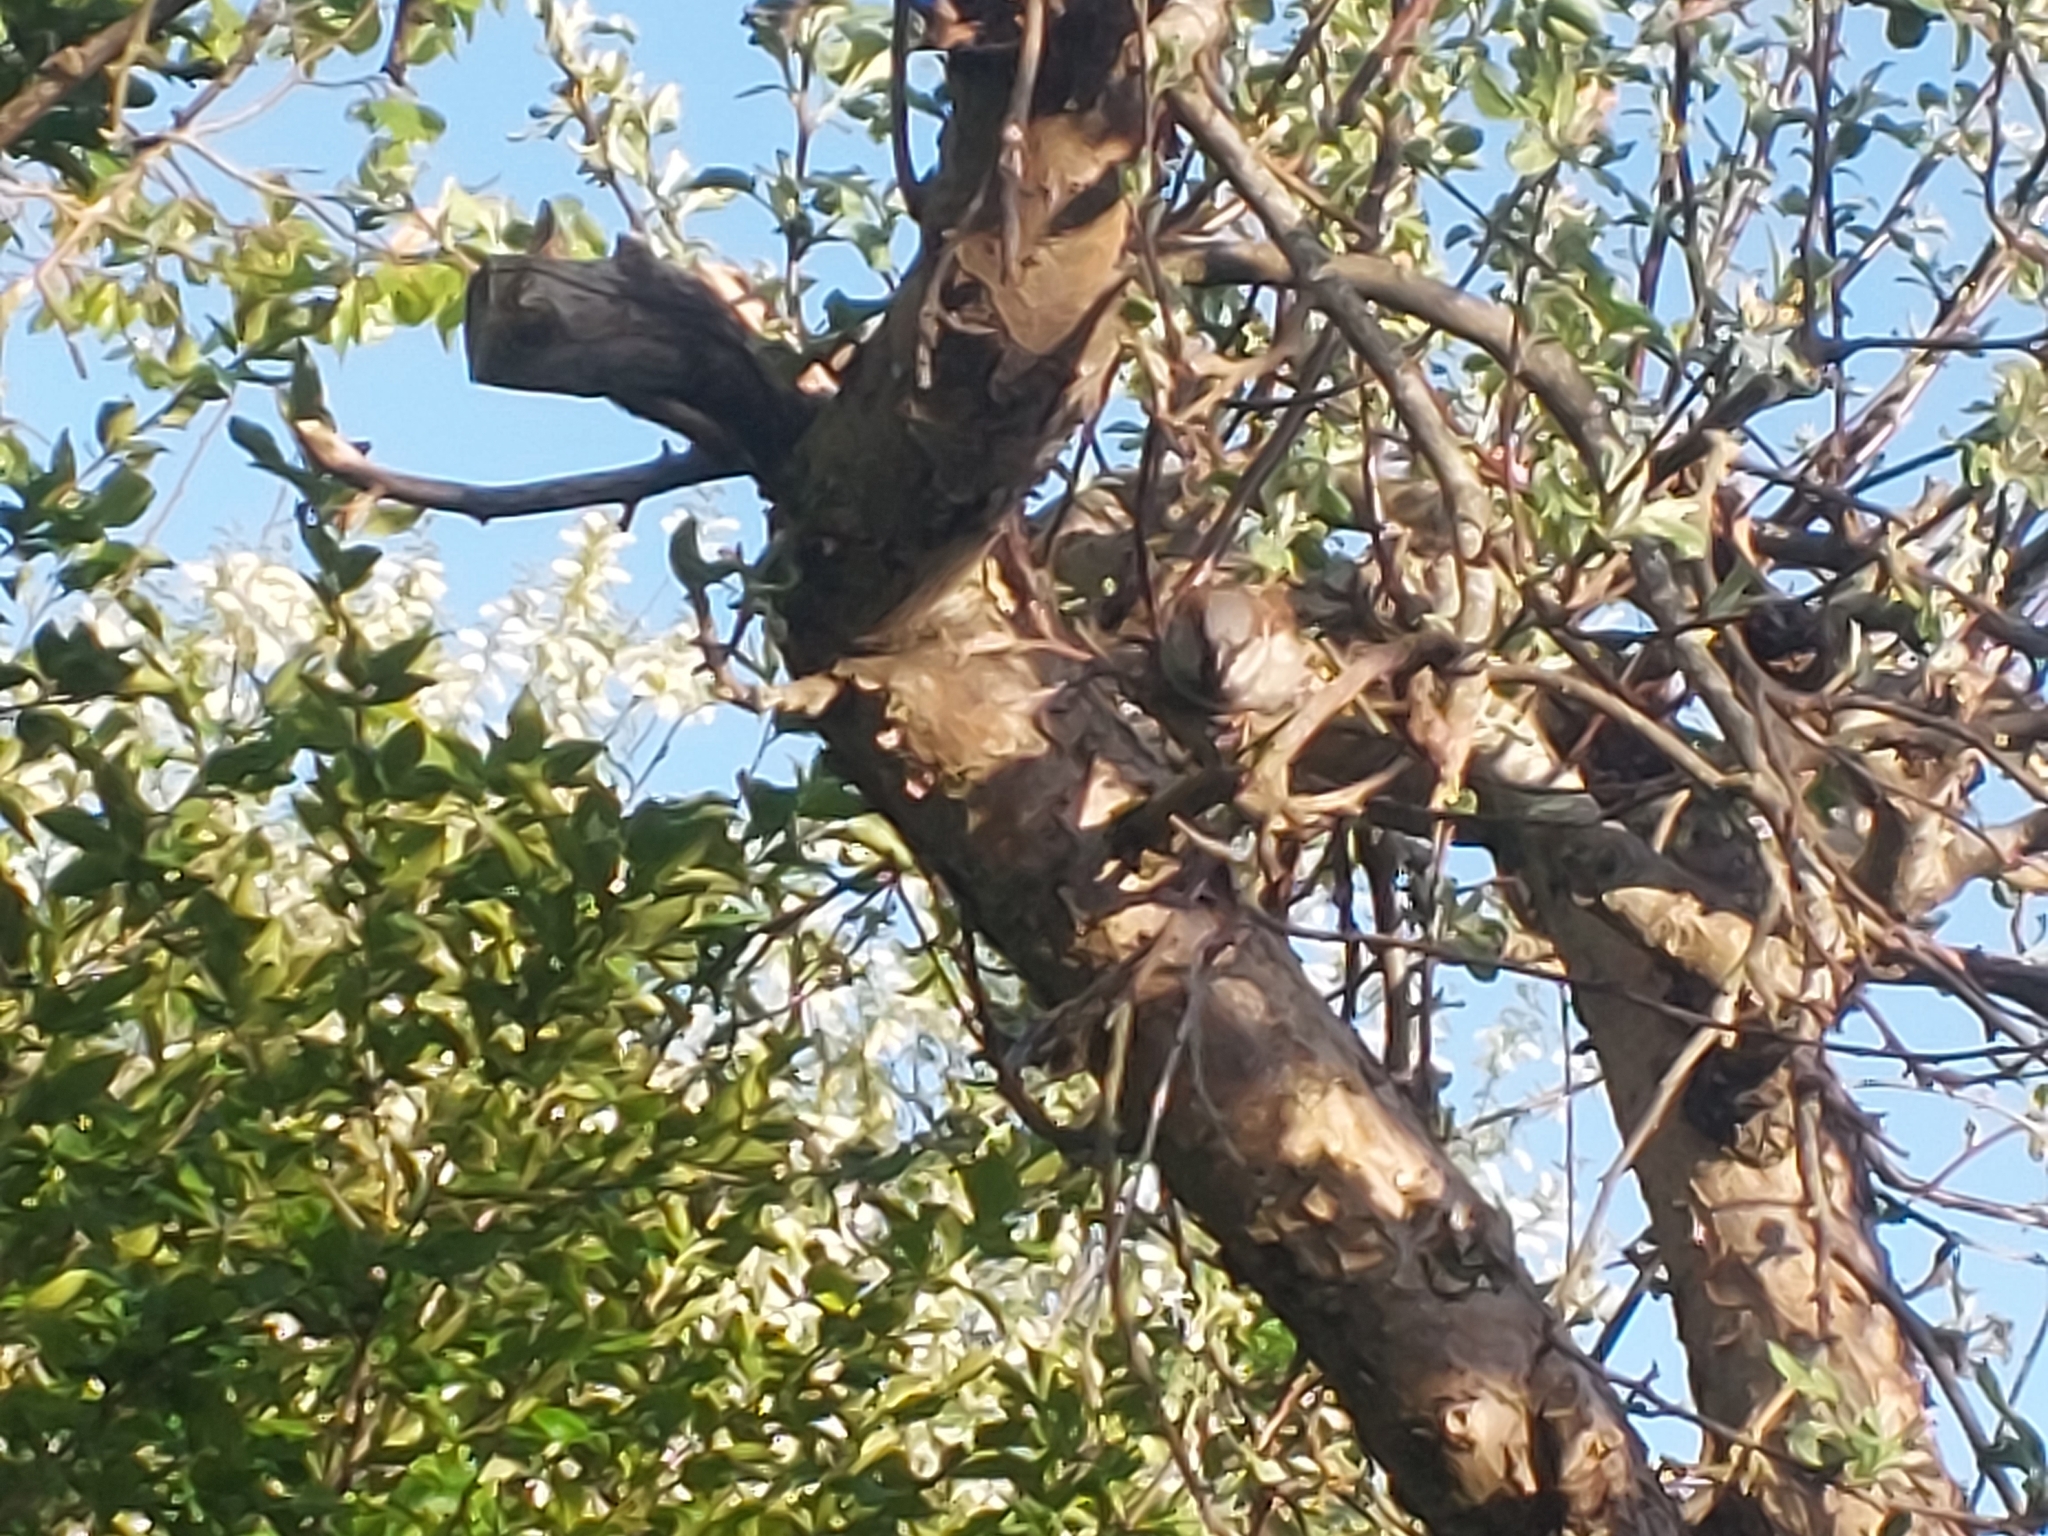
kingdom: Animalia
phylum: Chordata
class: Aves
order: Passeriformes
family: Passeridae
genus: Passer
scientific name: Passer domesticus
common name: House sparrow
